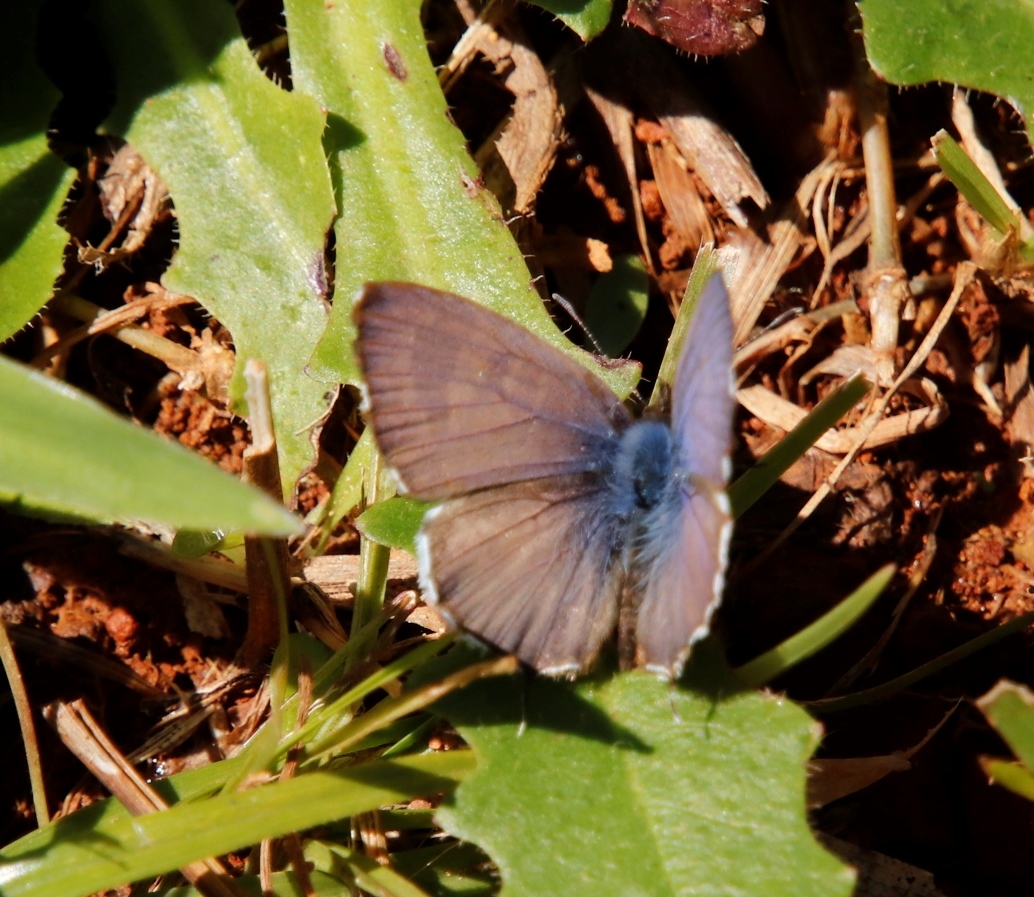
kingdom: Animalia
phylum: Arthropoda
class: Insecta
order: Lepidoptera
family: Lycaenidae
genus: Cacyreus
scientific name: Cacyreus lingeus
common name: Bush bronze
